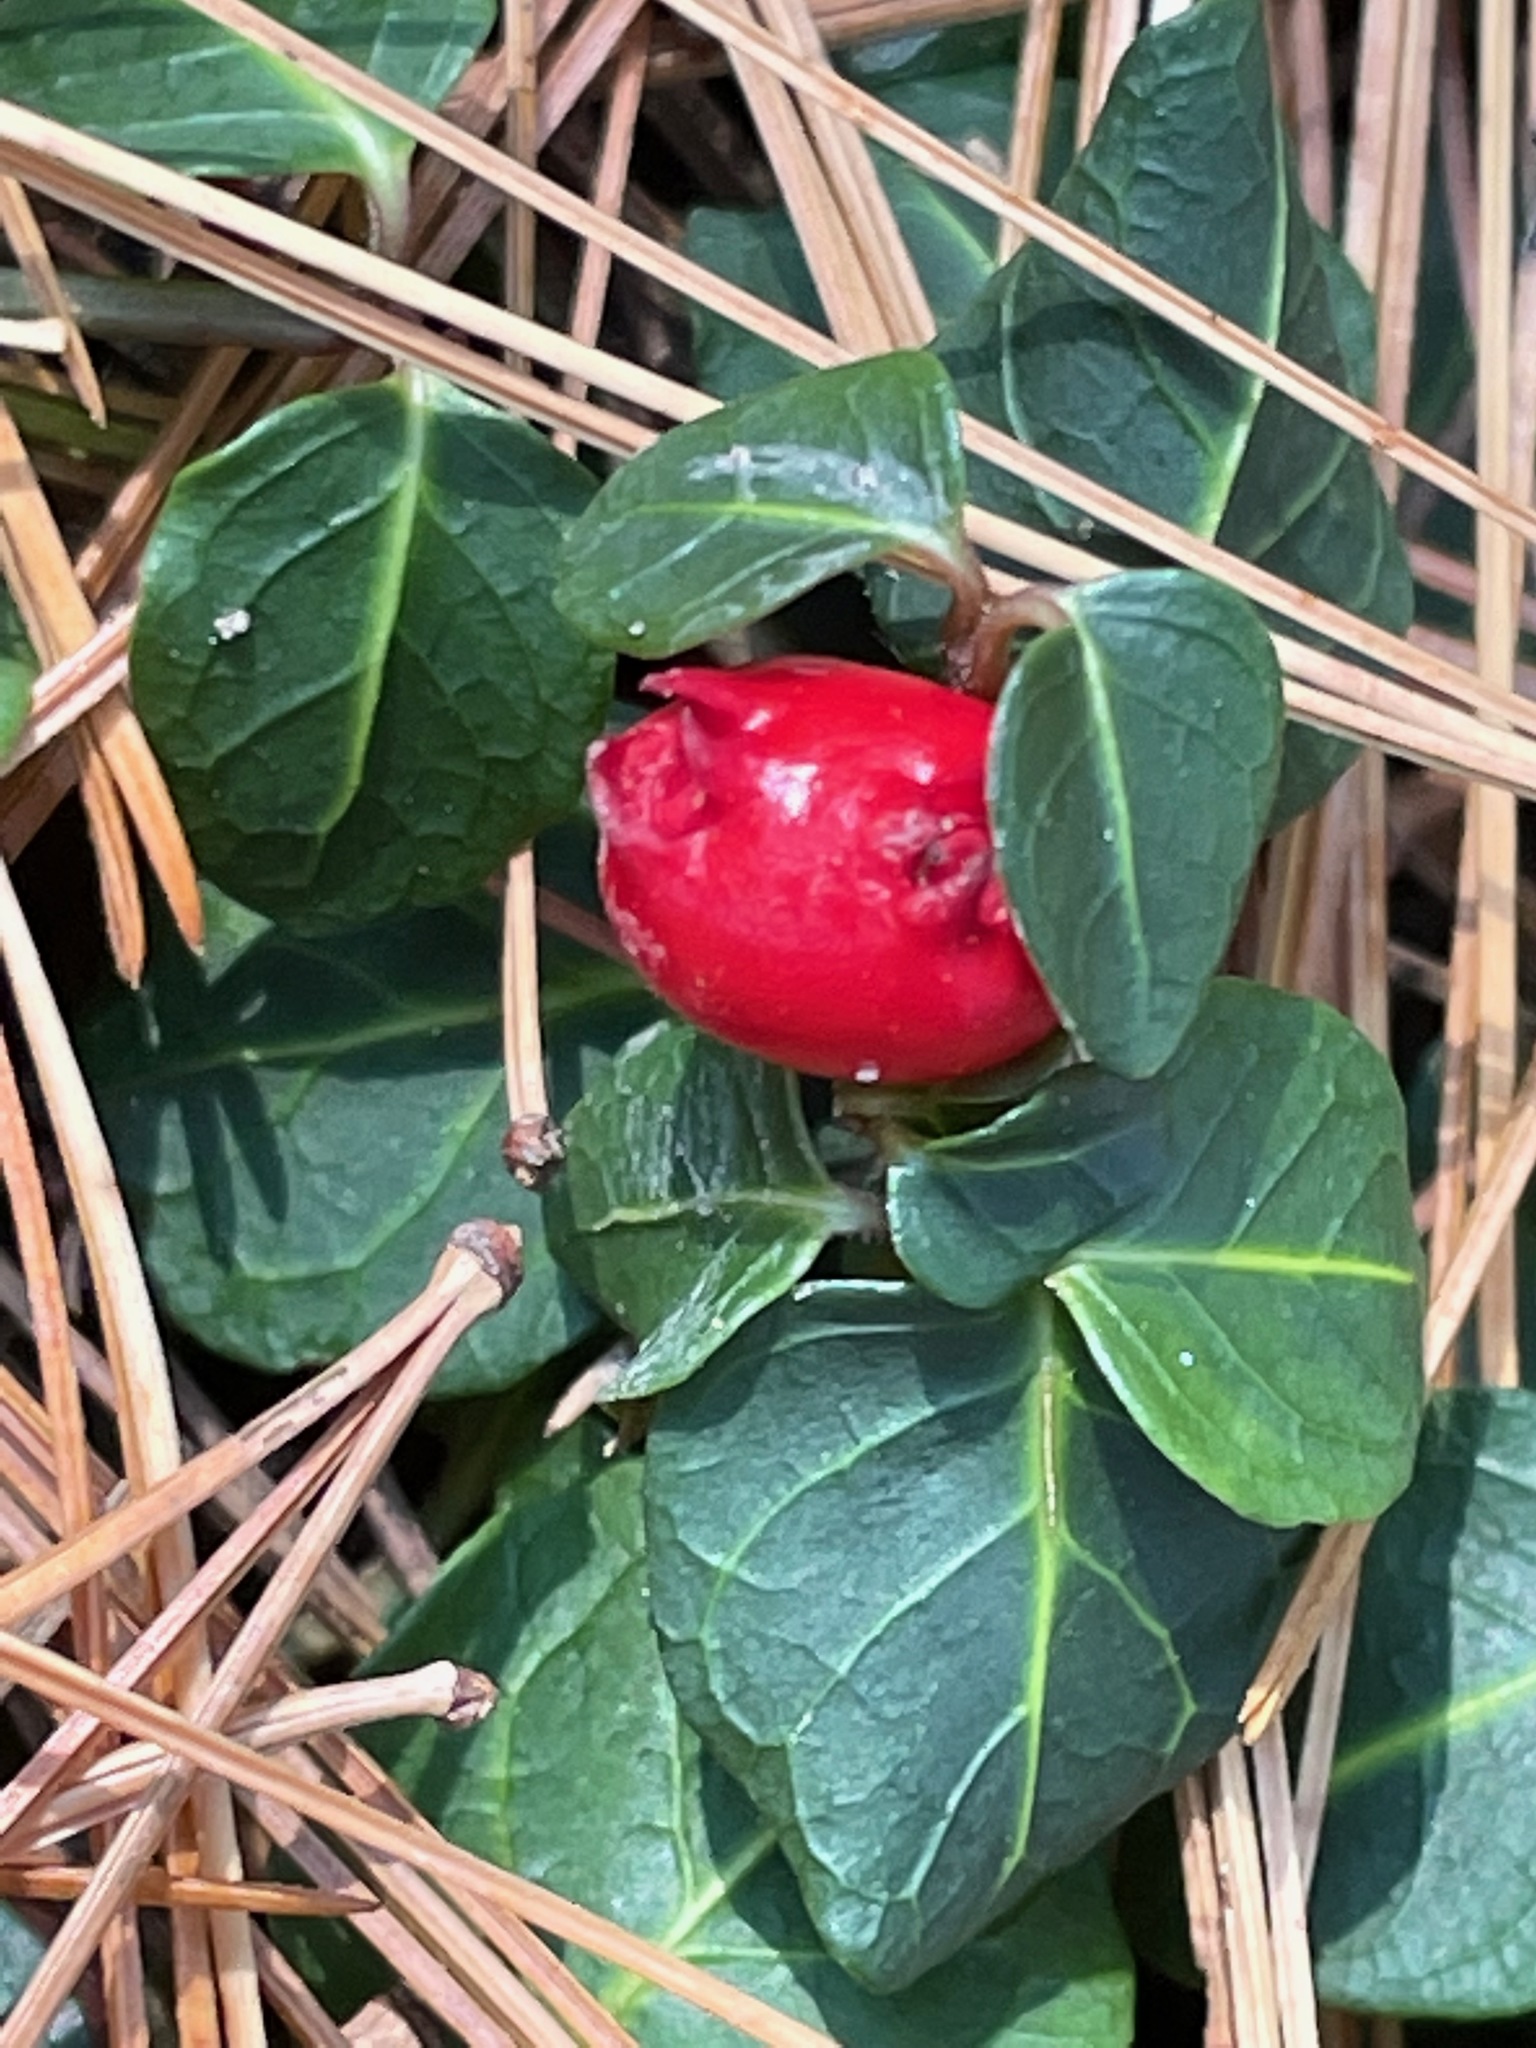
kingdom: Plantae
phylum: Tracheophyta
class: Magnoliopsida
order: Gentianales
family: Rubiaceae
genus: Mitchella
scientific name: Mitchella repens
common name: Partridge-berry
